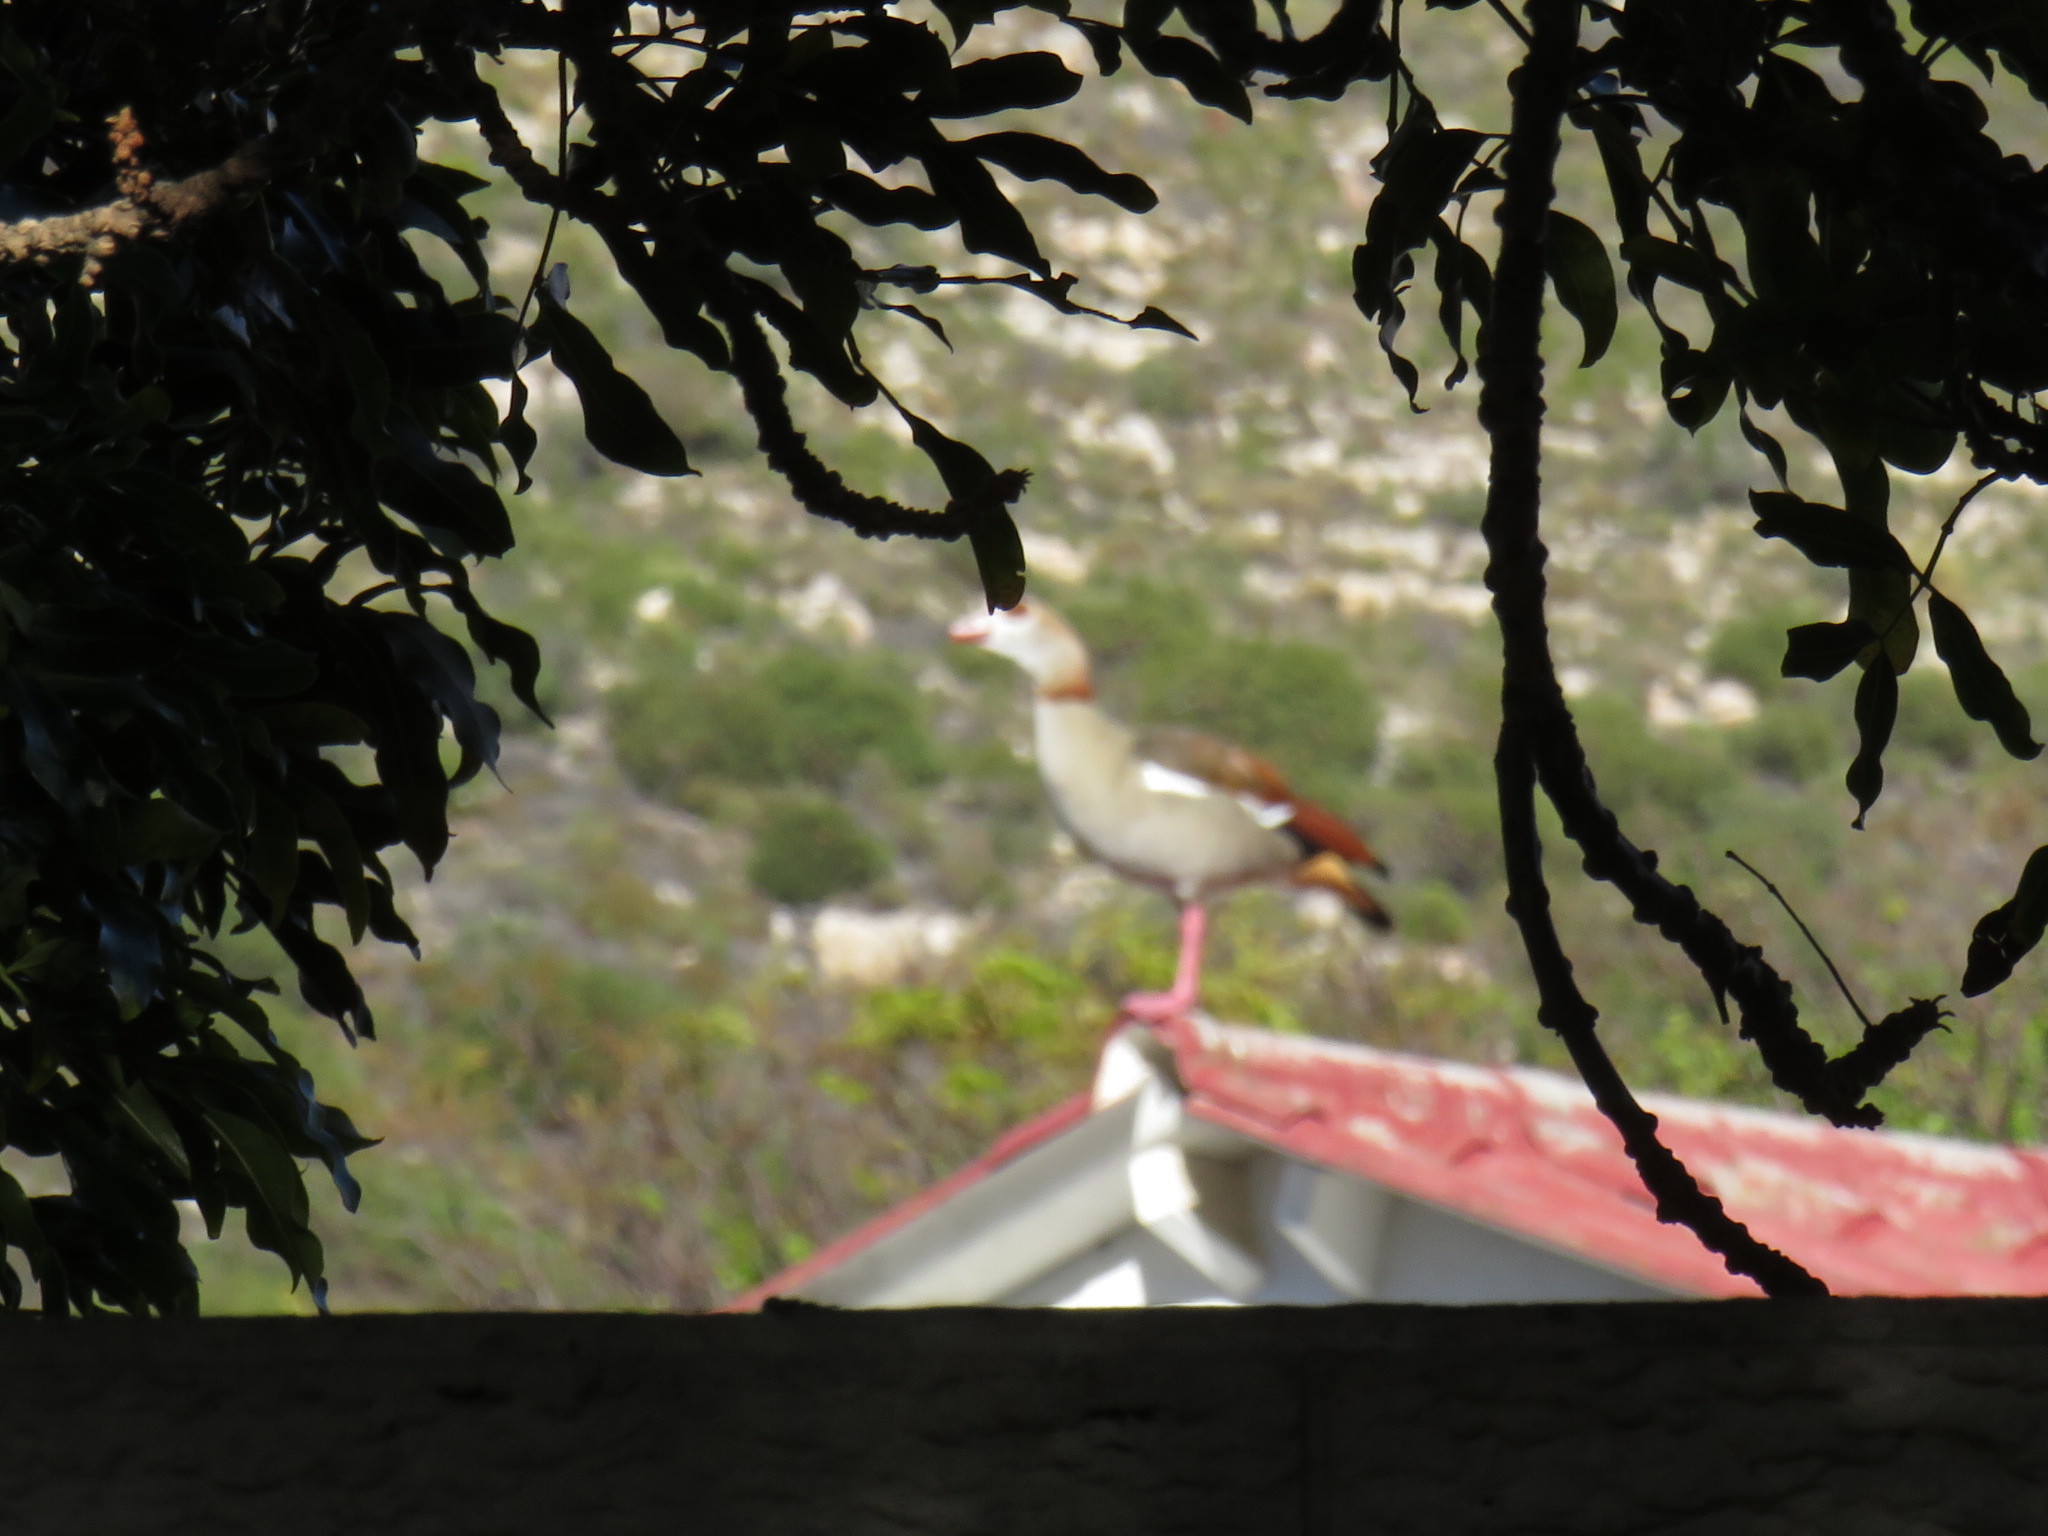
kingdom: Animalia
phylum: Chordata
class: Aves
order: Anseriformes
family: Anatidae
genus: Alopochen
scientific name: Alopochen aegyptiaca
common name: Egyptian goose
